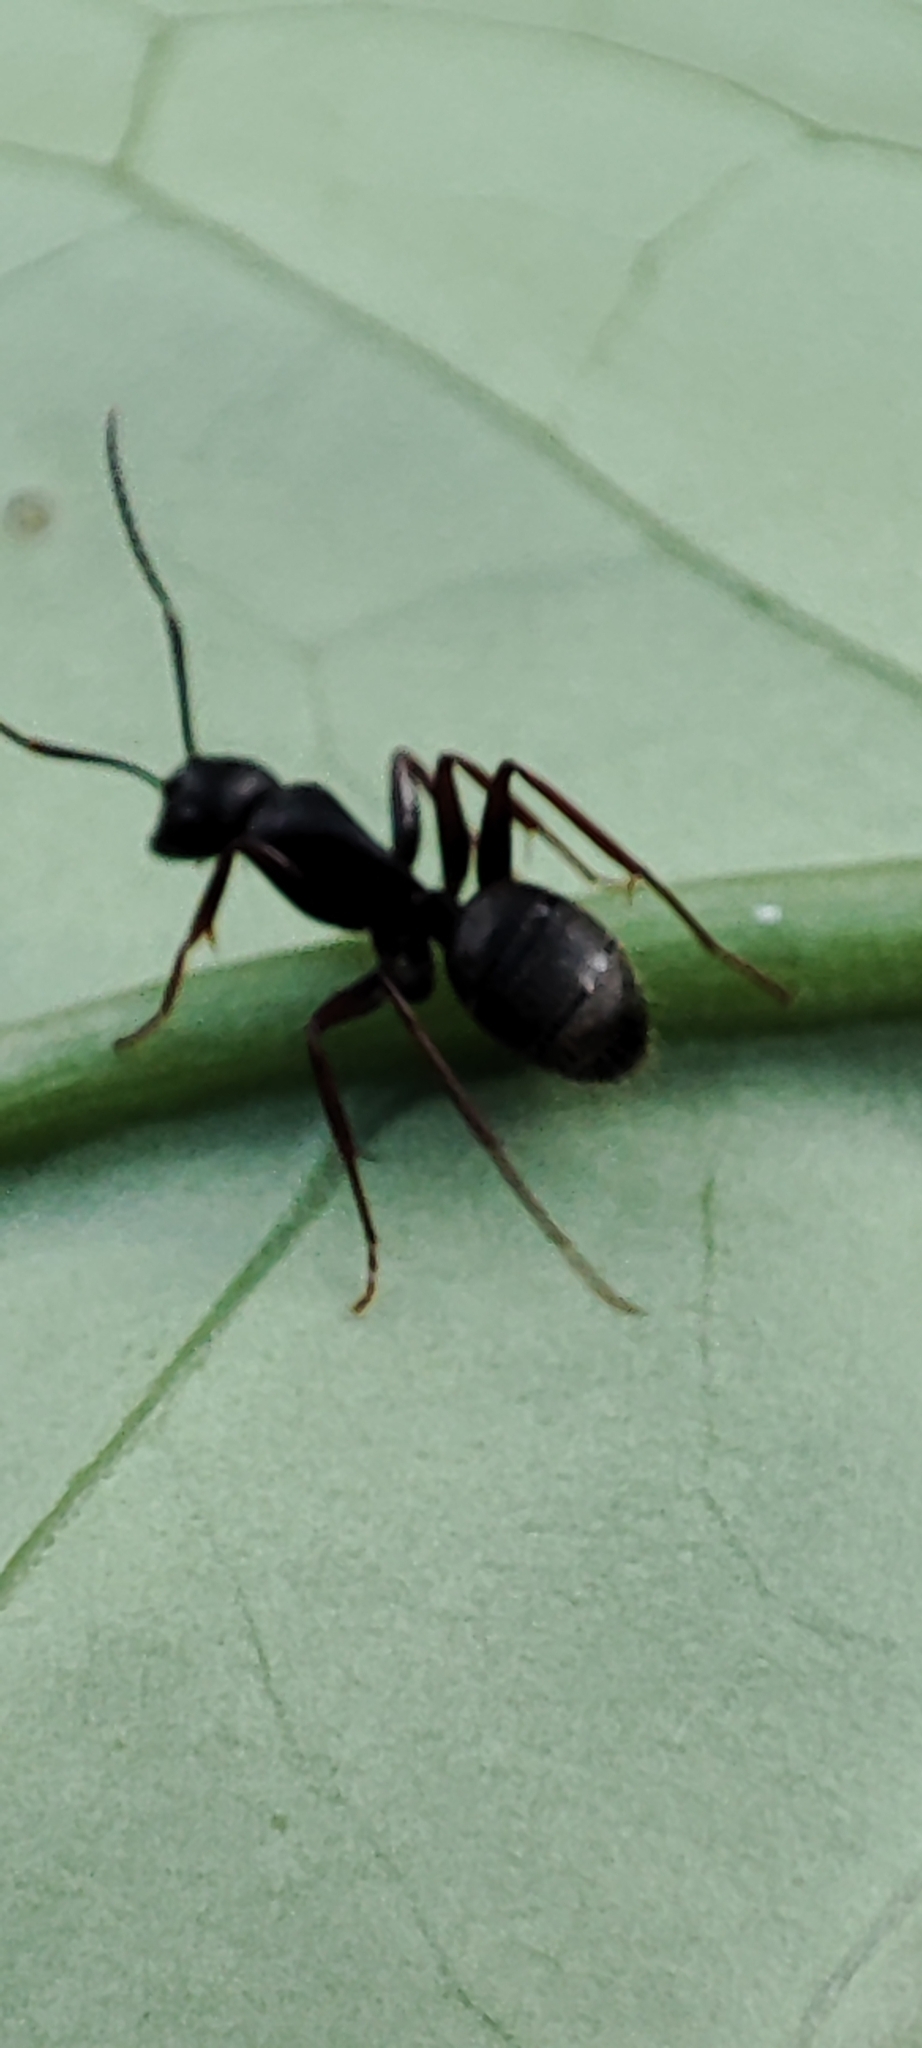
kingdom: Animalia
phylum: Arthropoda
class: Insecta
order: Hymenoptera
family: Formicidae
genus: Camponotus
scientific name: Camponotus modoc
